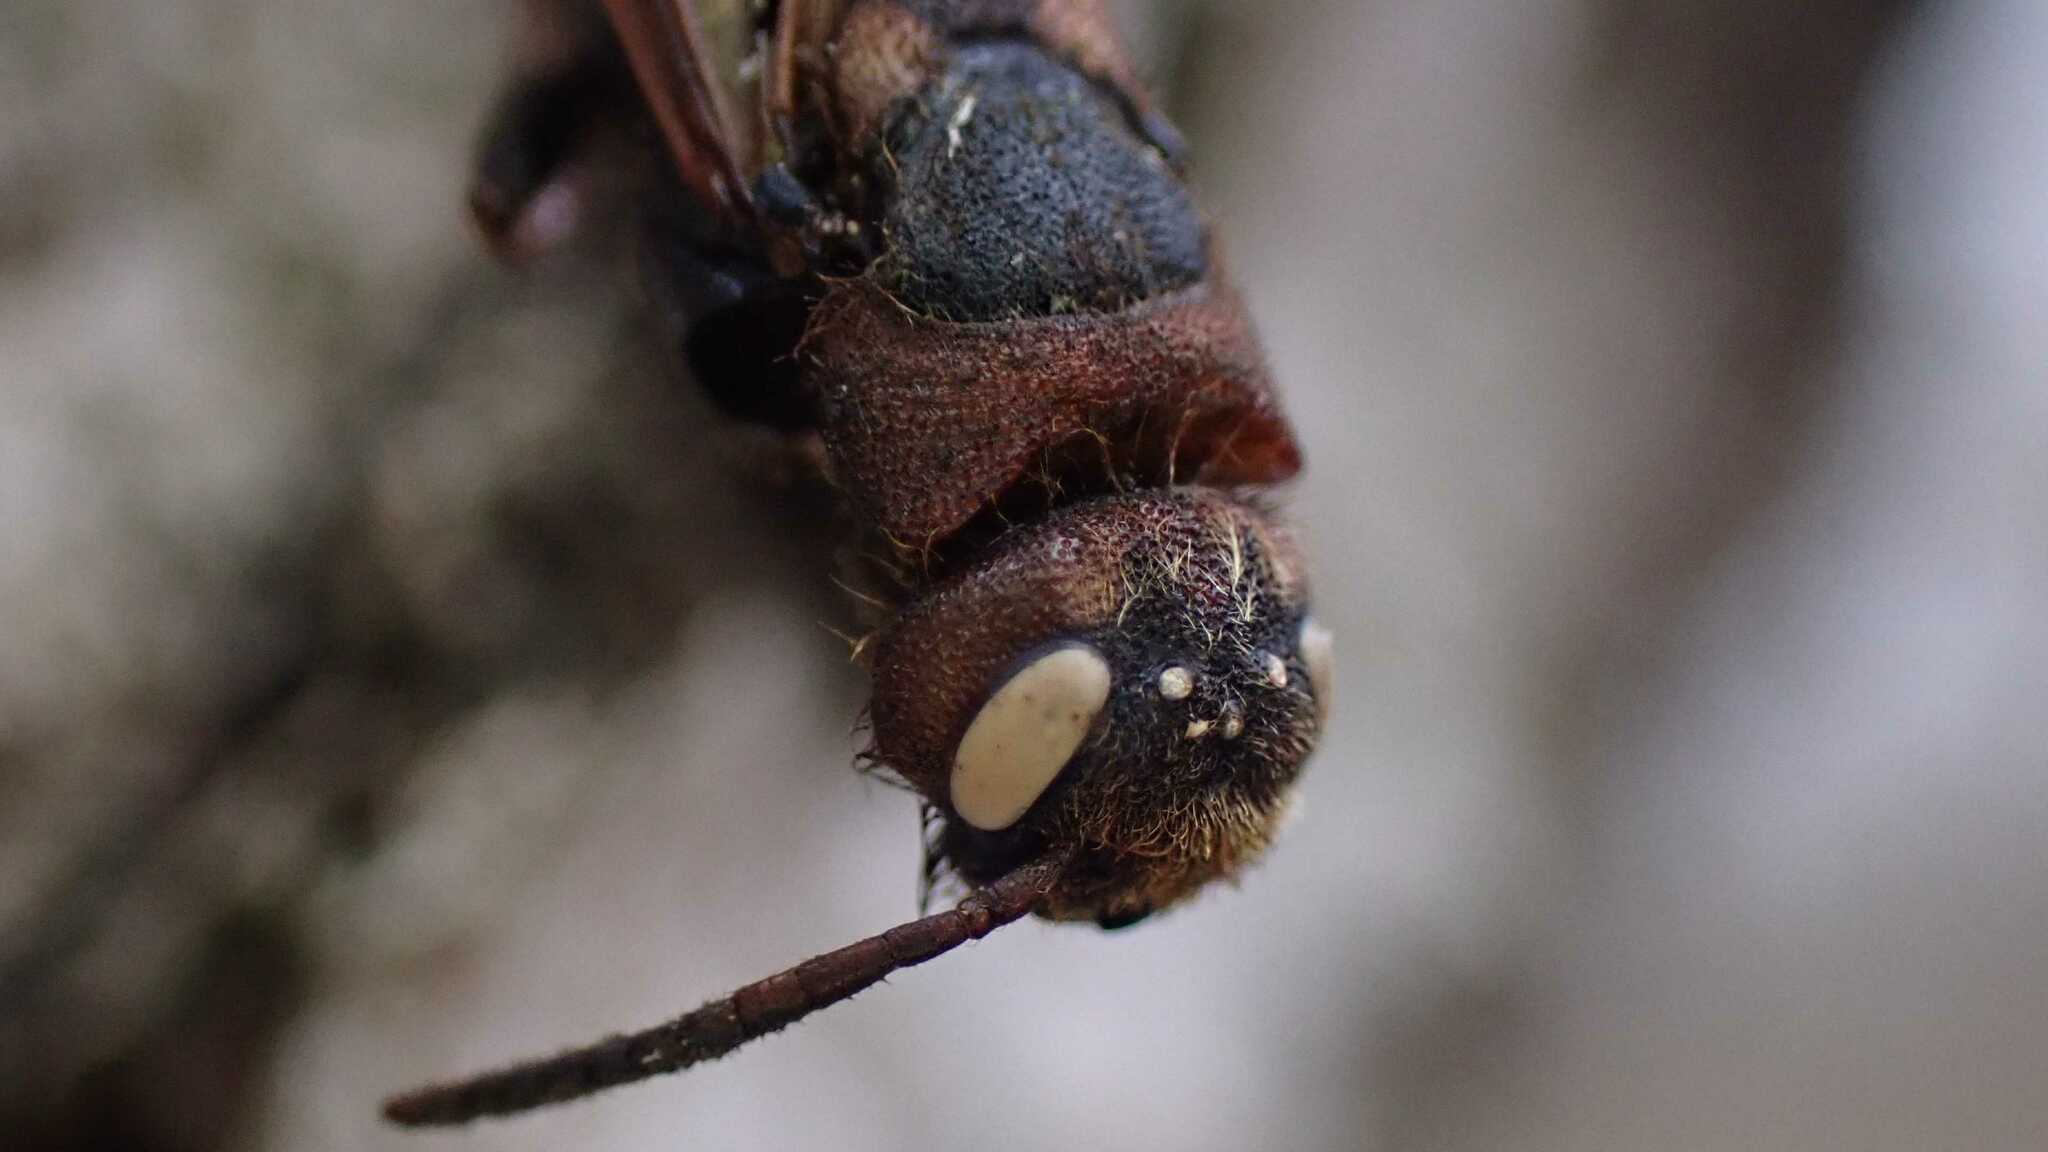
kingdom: Animalia
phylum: Arthropoda
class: Insecta
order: Hymenoptera
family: Siricidae
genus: Tremex
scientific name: Tremex fuscicornis
